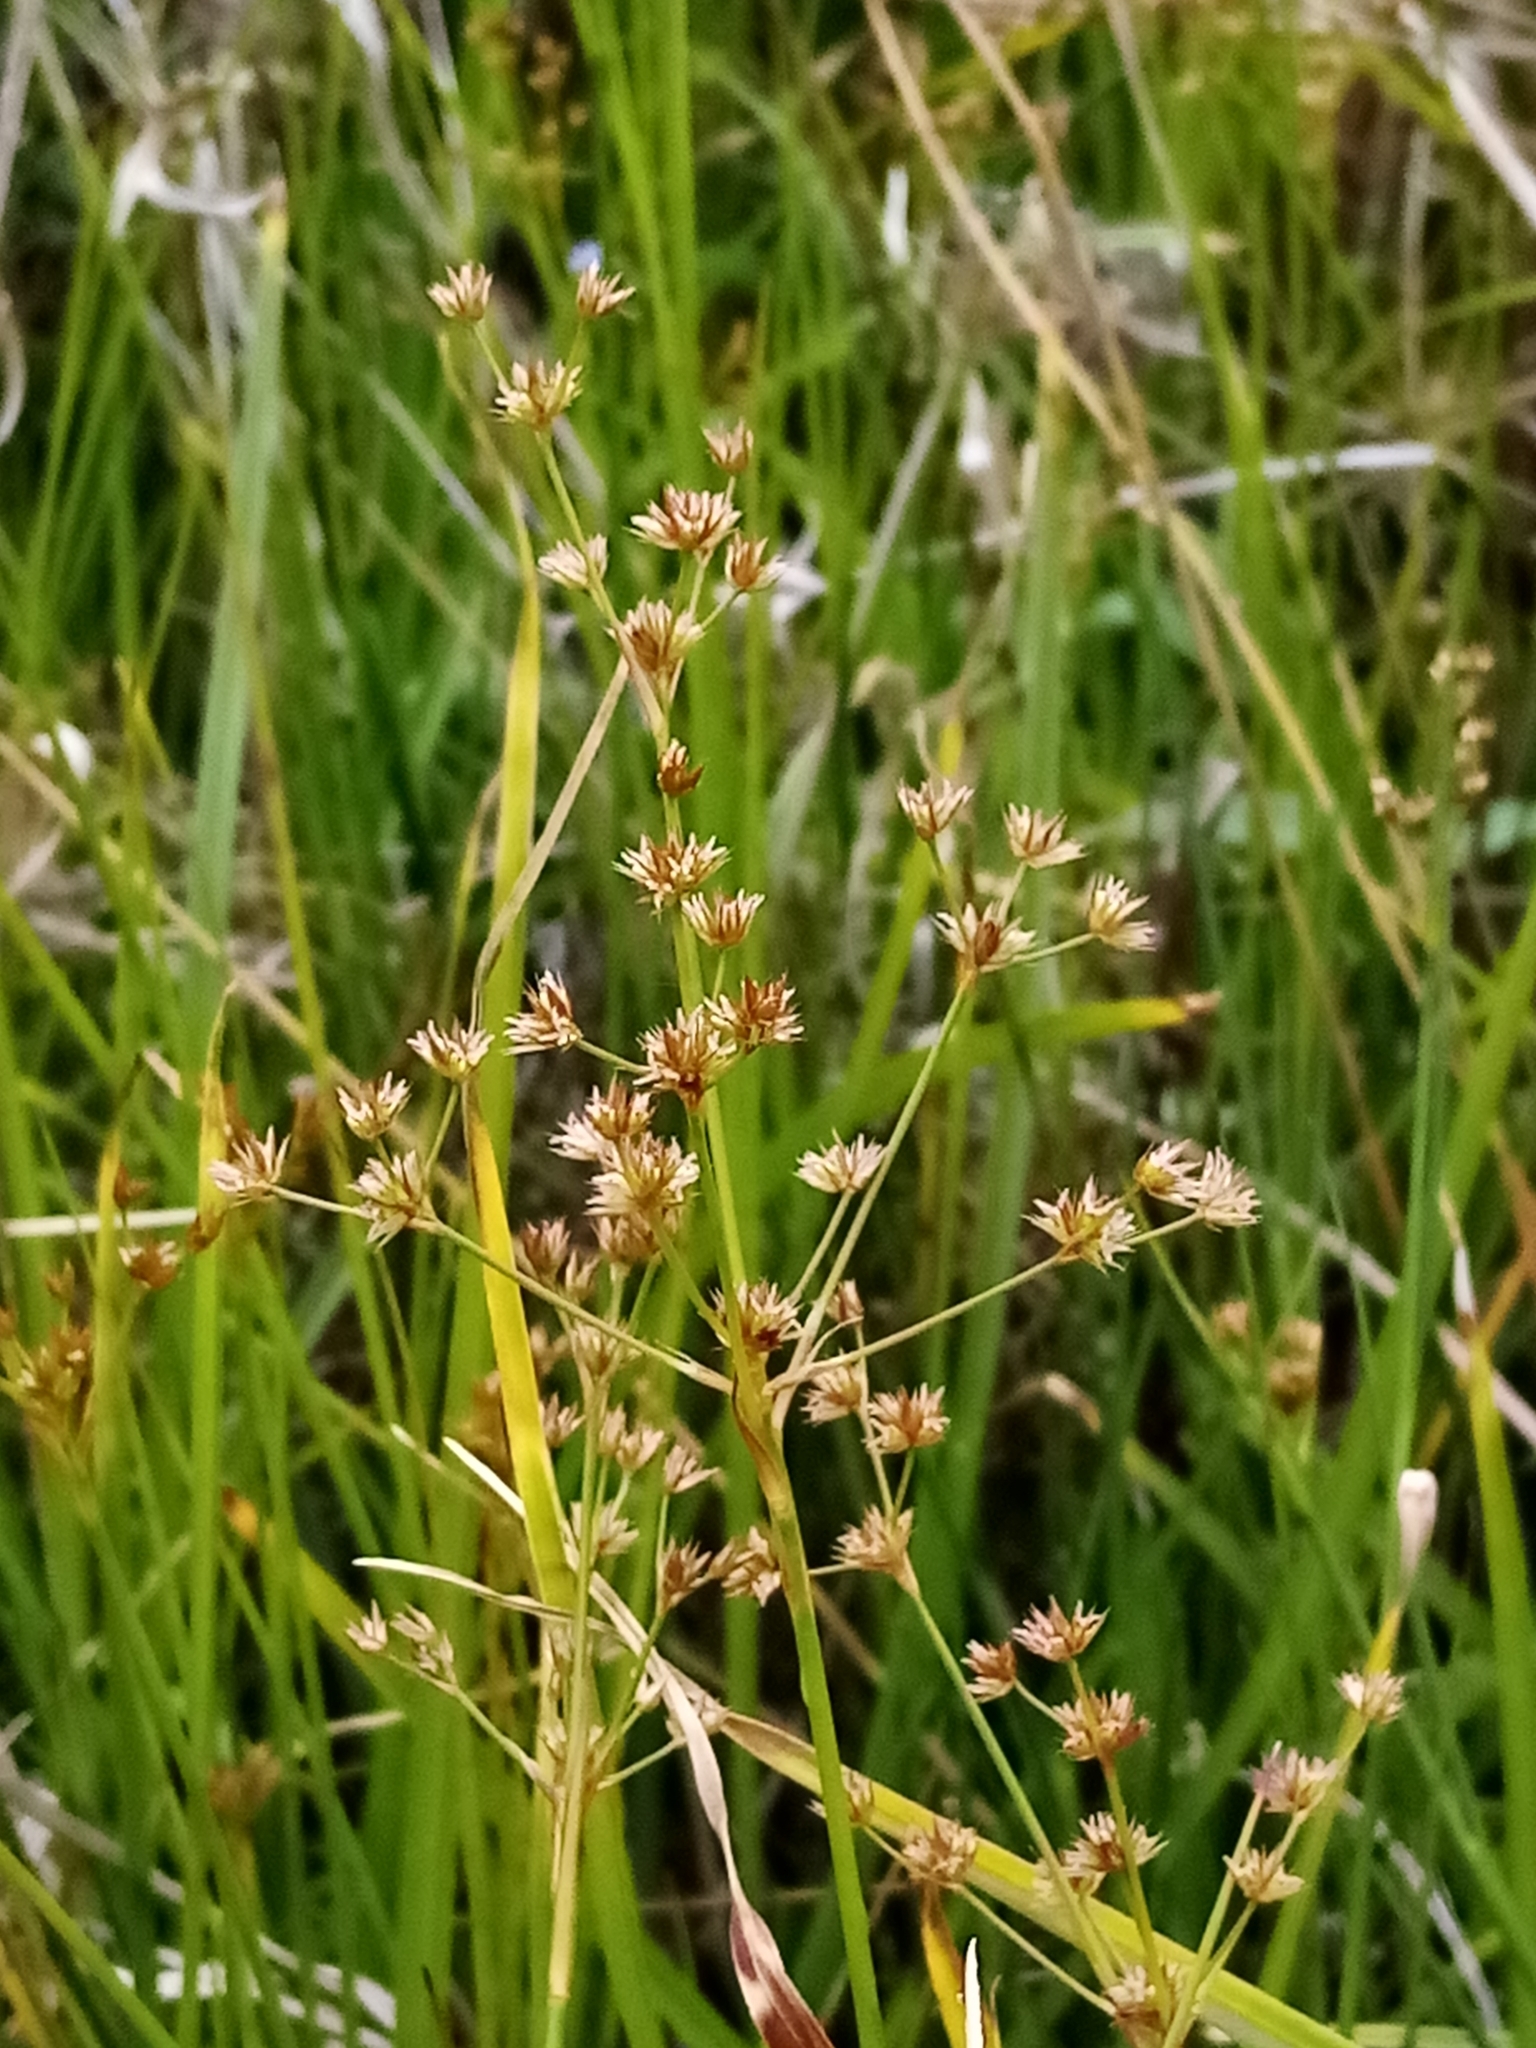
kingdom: Plantae
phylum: Tracheophyta
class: Liliopsida
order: Poales
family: Juncaceae
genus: Juncus
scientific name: Juncus acuminatus
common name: Knotty-leaved rush
